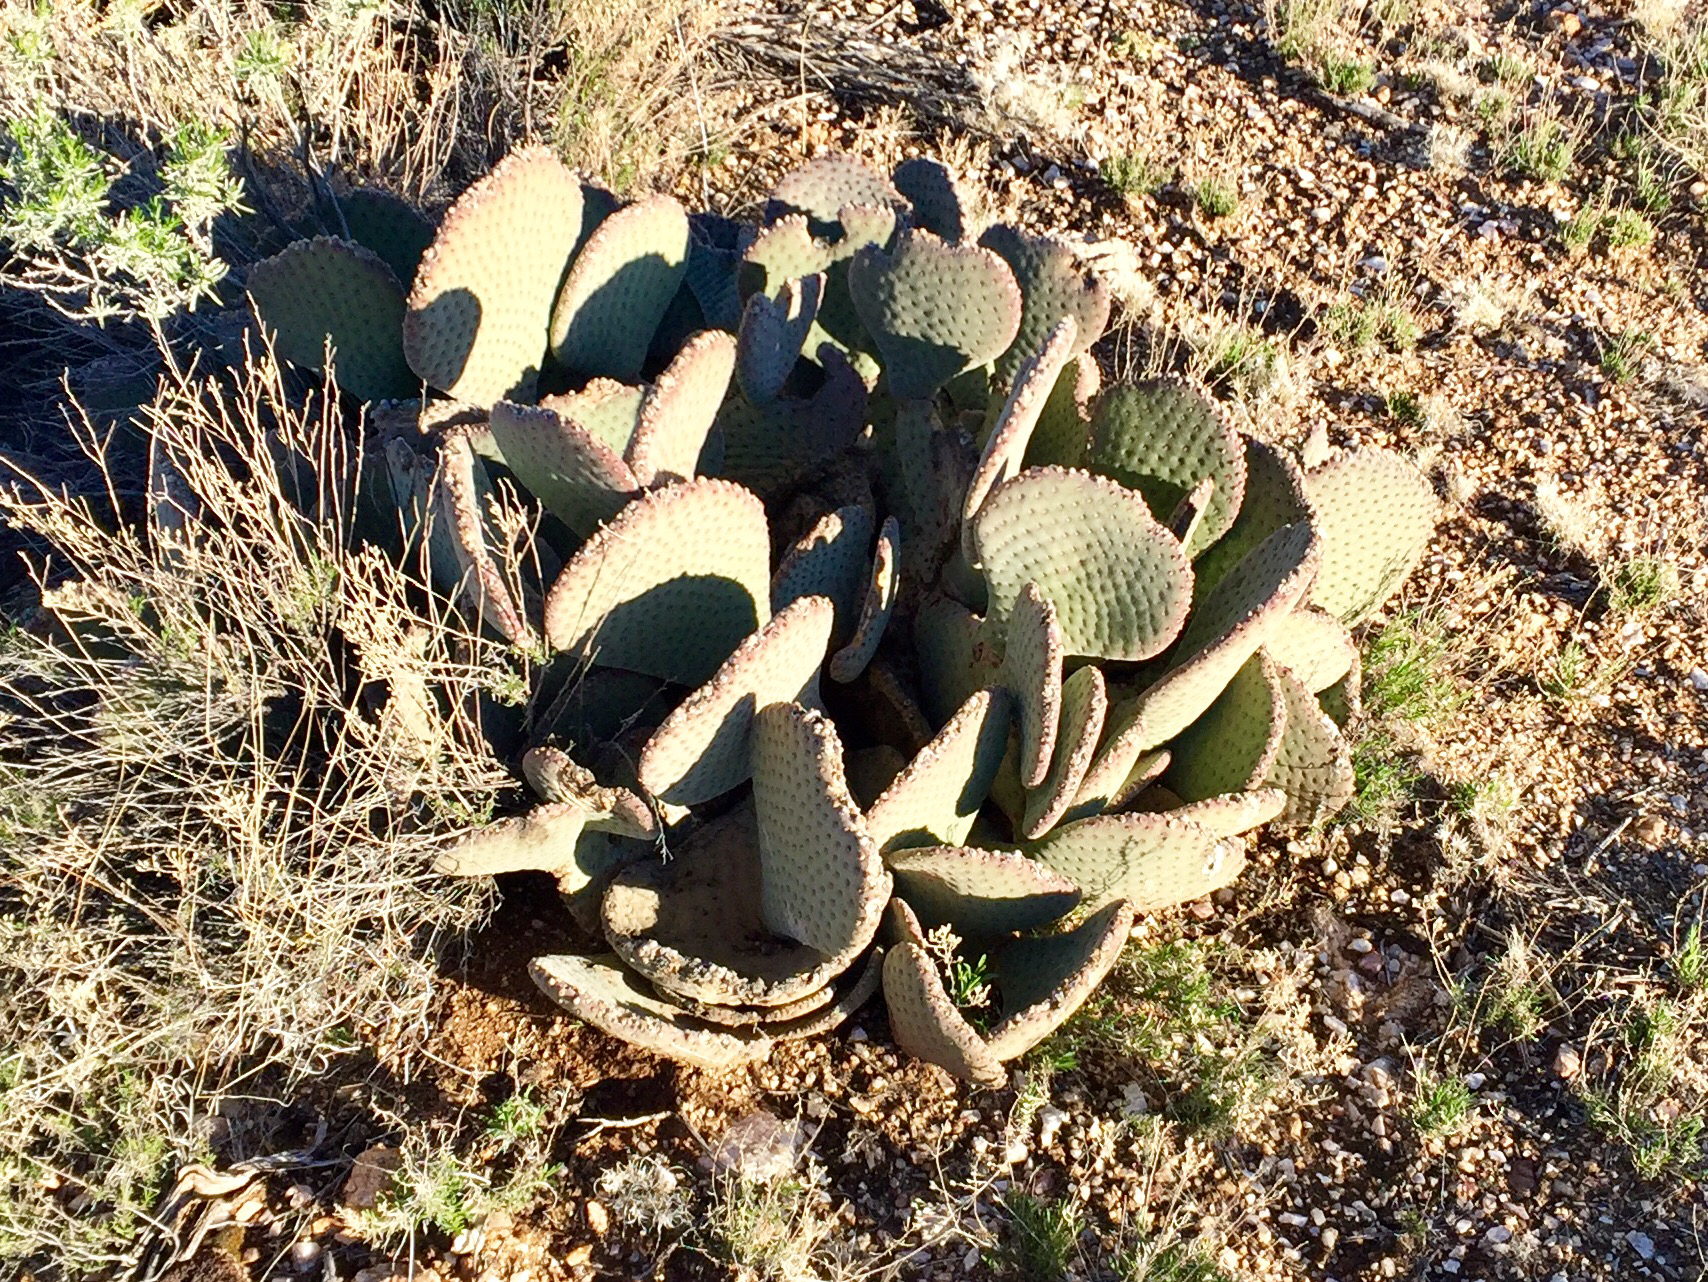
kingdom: Plantae
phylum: Tracheophyta
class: Magnoliopsida
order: Caryophyllales
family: Cactaceae
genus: Opuntia
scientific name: Opuntia basilaris
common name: Beavertail prickly-pear
